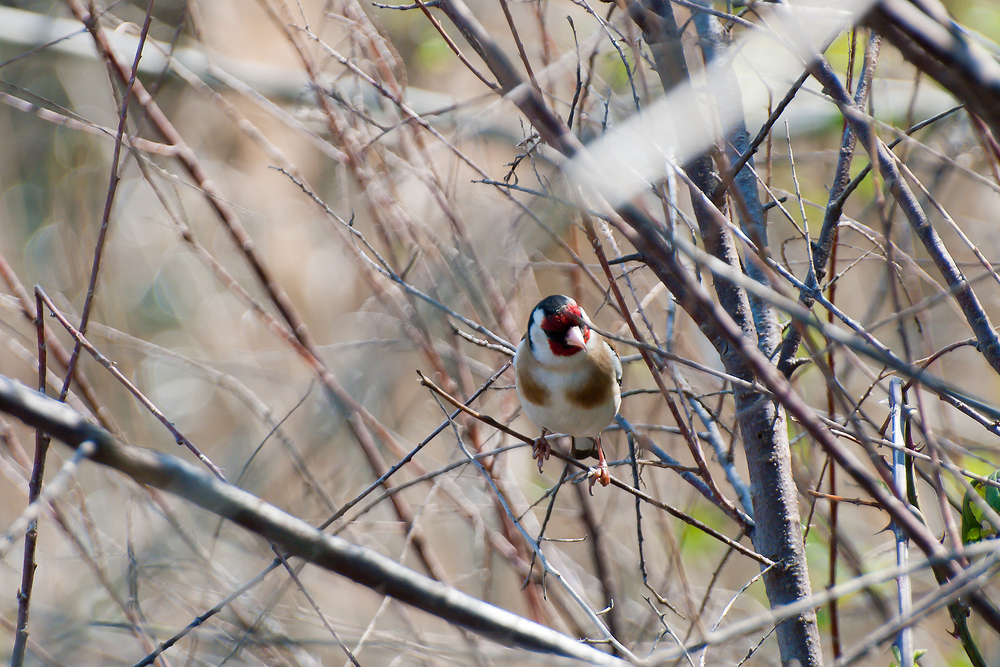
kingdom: Animalia
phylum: Chordata
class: Aves
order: Passeriformes
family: Fringillidae
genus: Carduelis
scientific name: Carduelis carduelis
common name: European goldfinch
